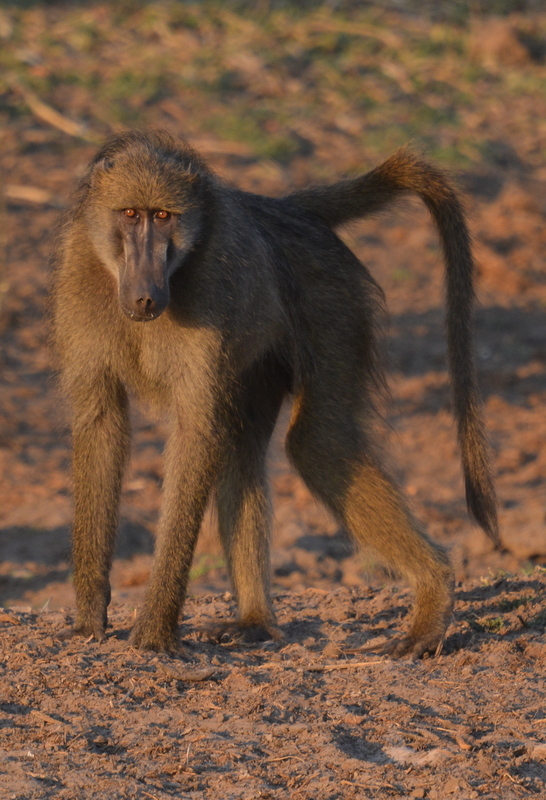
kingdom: Animalia
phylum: Chordata
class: Mammalia
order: Primates
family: Cercopithecidae
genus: Papio
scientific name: Papio ursinus
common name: Chacma baboon
